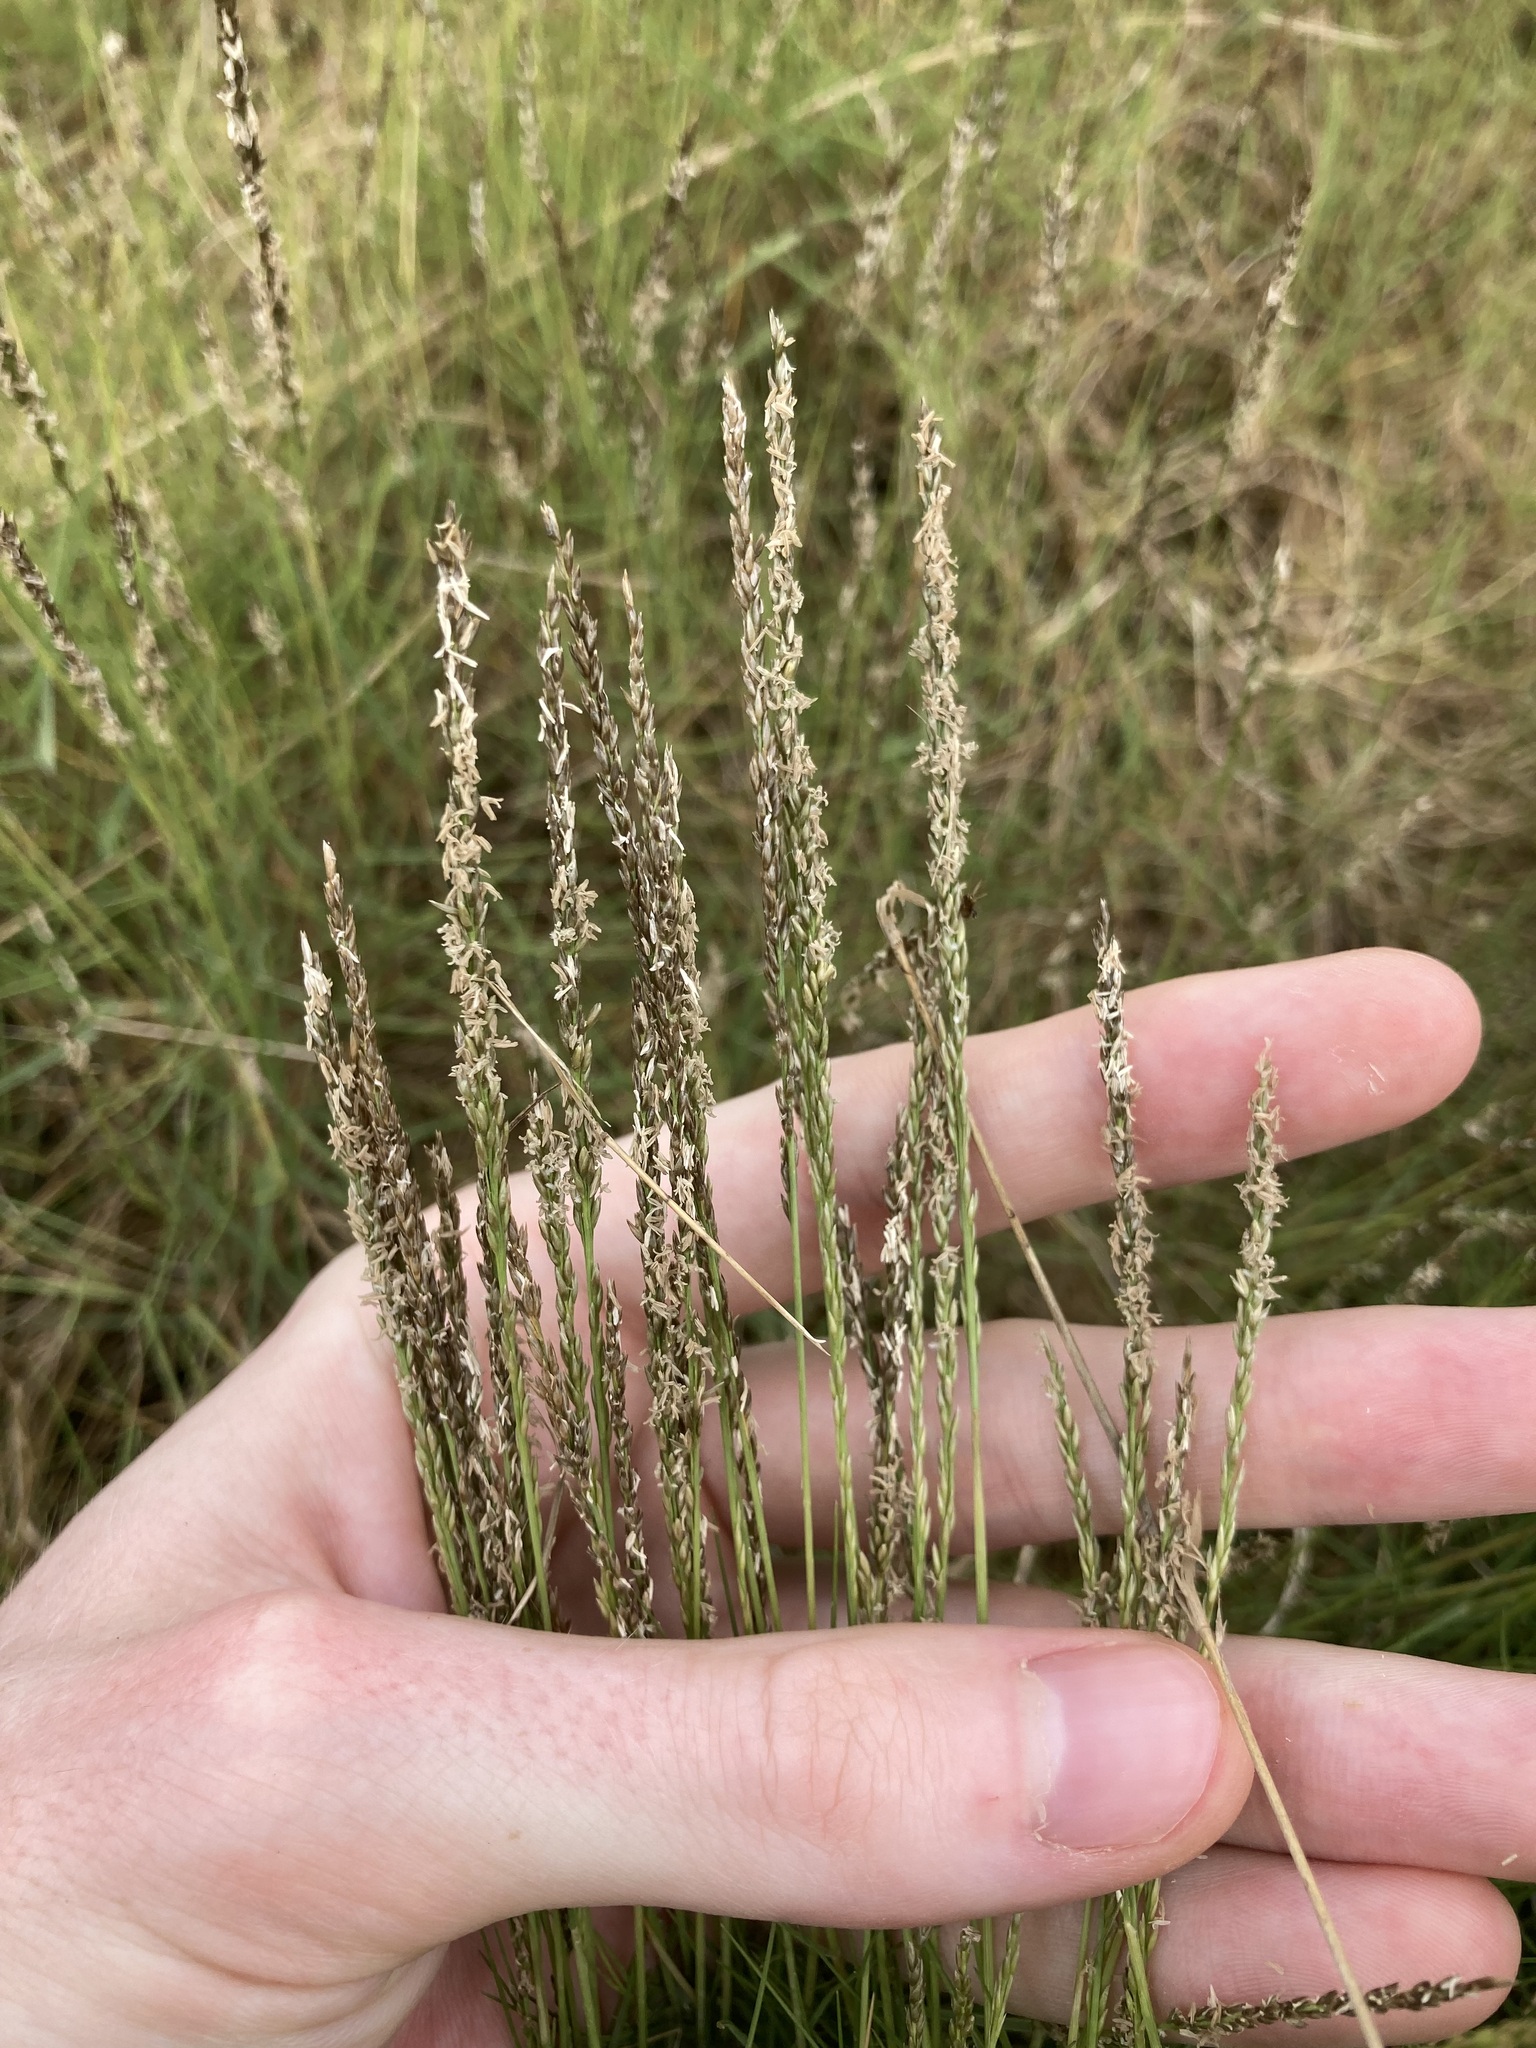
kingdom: Plantae
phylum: Tracheophyta
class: Liliopsida
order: Poales
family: Poaceae
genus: Sporobolus
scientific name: Sporobolus virginicus
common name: Beach dropseed
